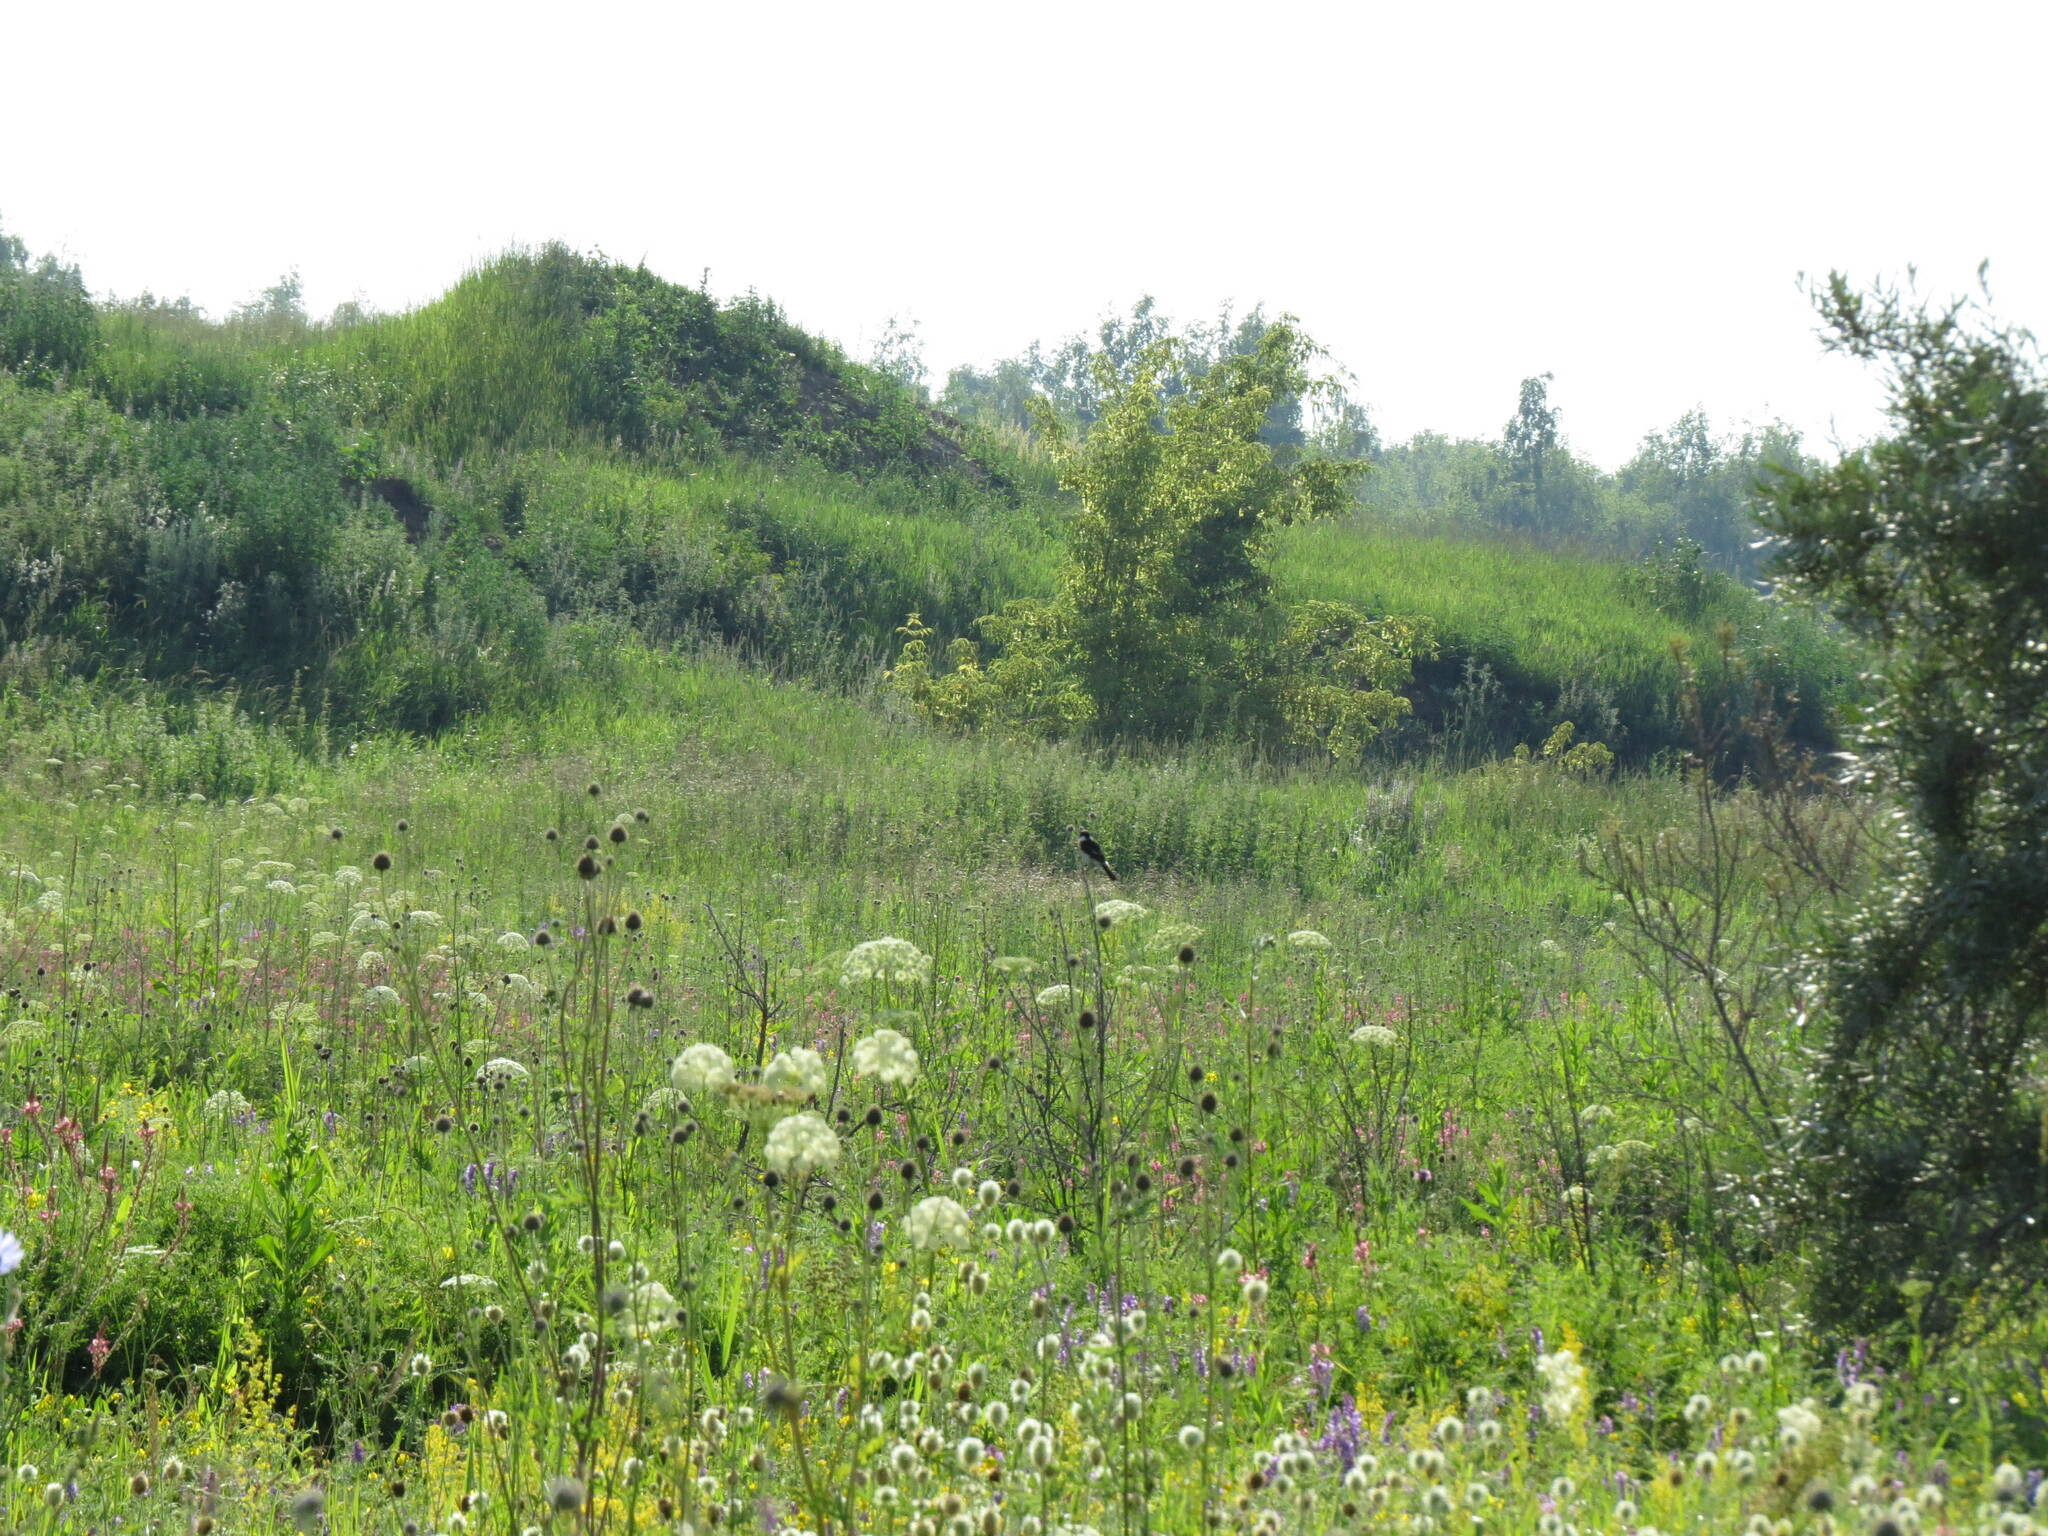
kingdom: Animalia
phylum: Chordata
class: Aves
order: Passeriformes
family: Muscicapidae
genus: Saxicola
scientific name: Saxicola maurus
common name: Siberian stonechat
